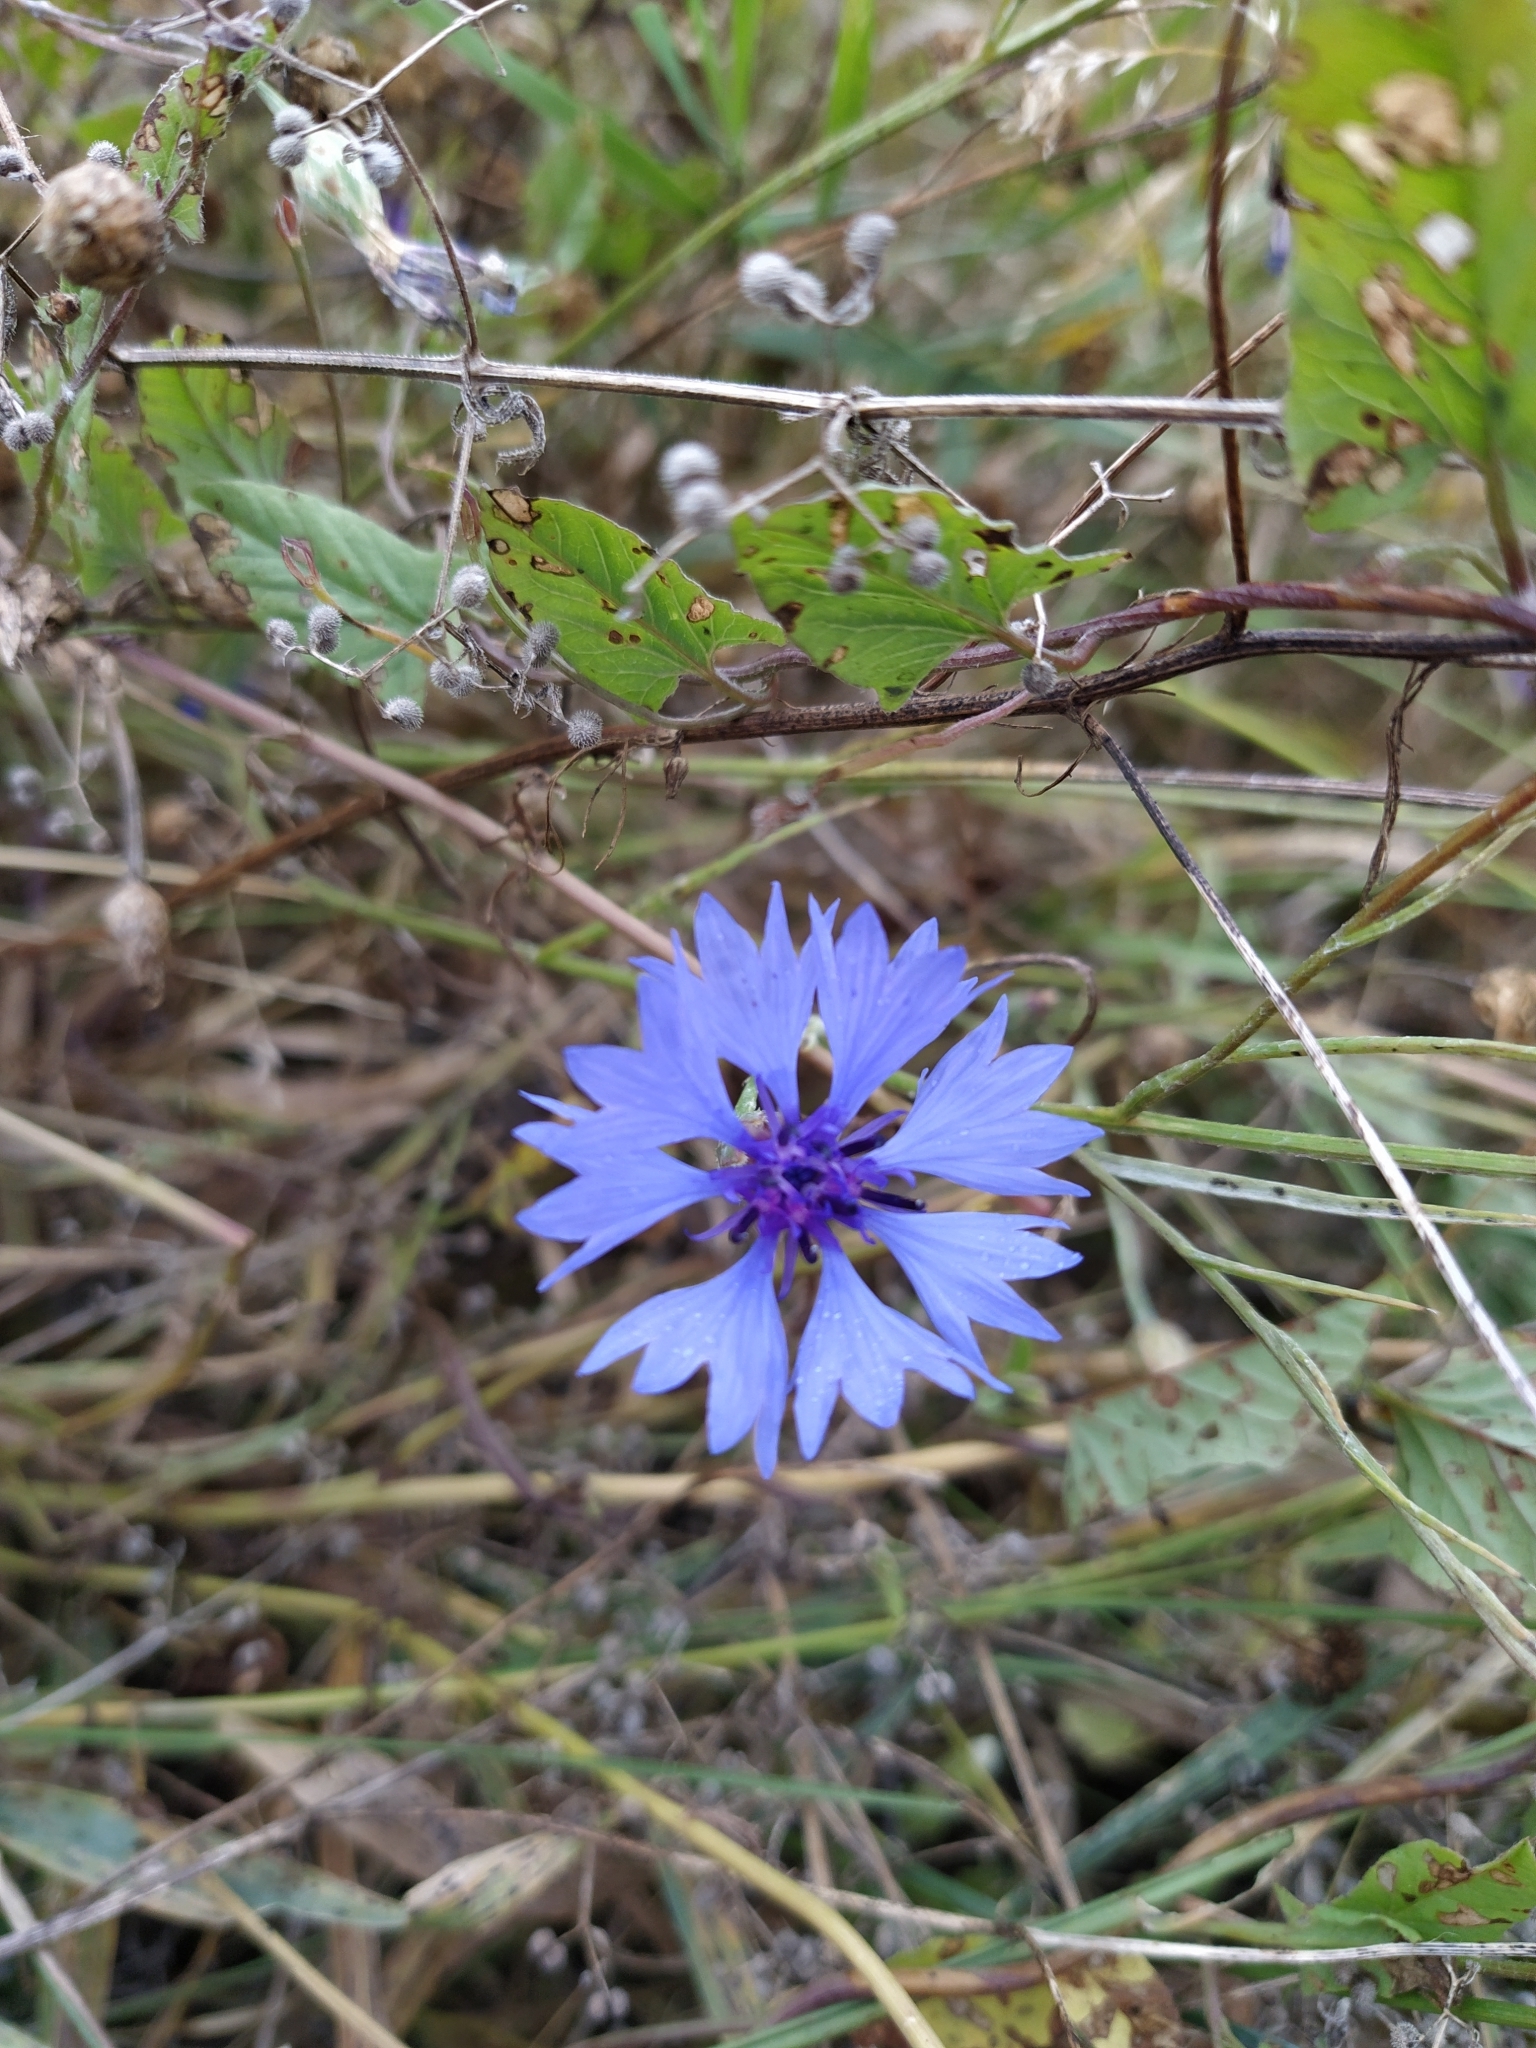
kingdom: Plantae
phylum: Tracheophyta
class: Magnoliopsida
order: Asterales
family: Asteraceae
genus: Centaurea
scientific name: Centaurea cyanus
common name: Cornflower
